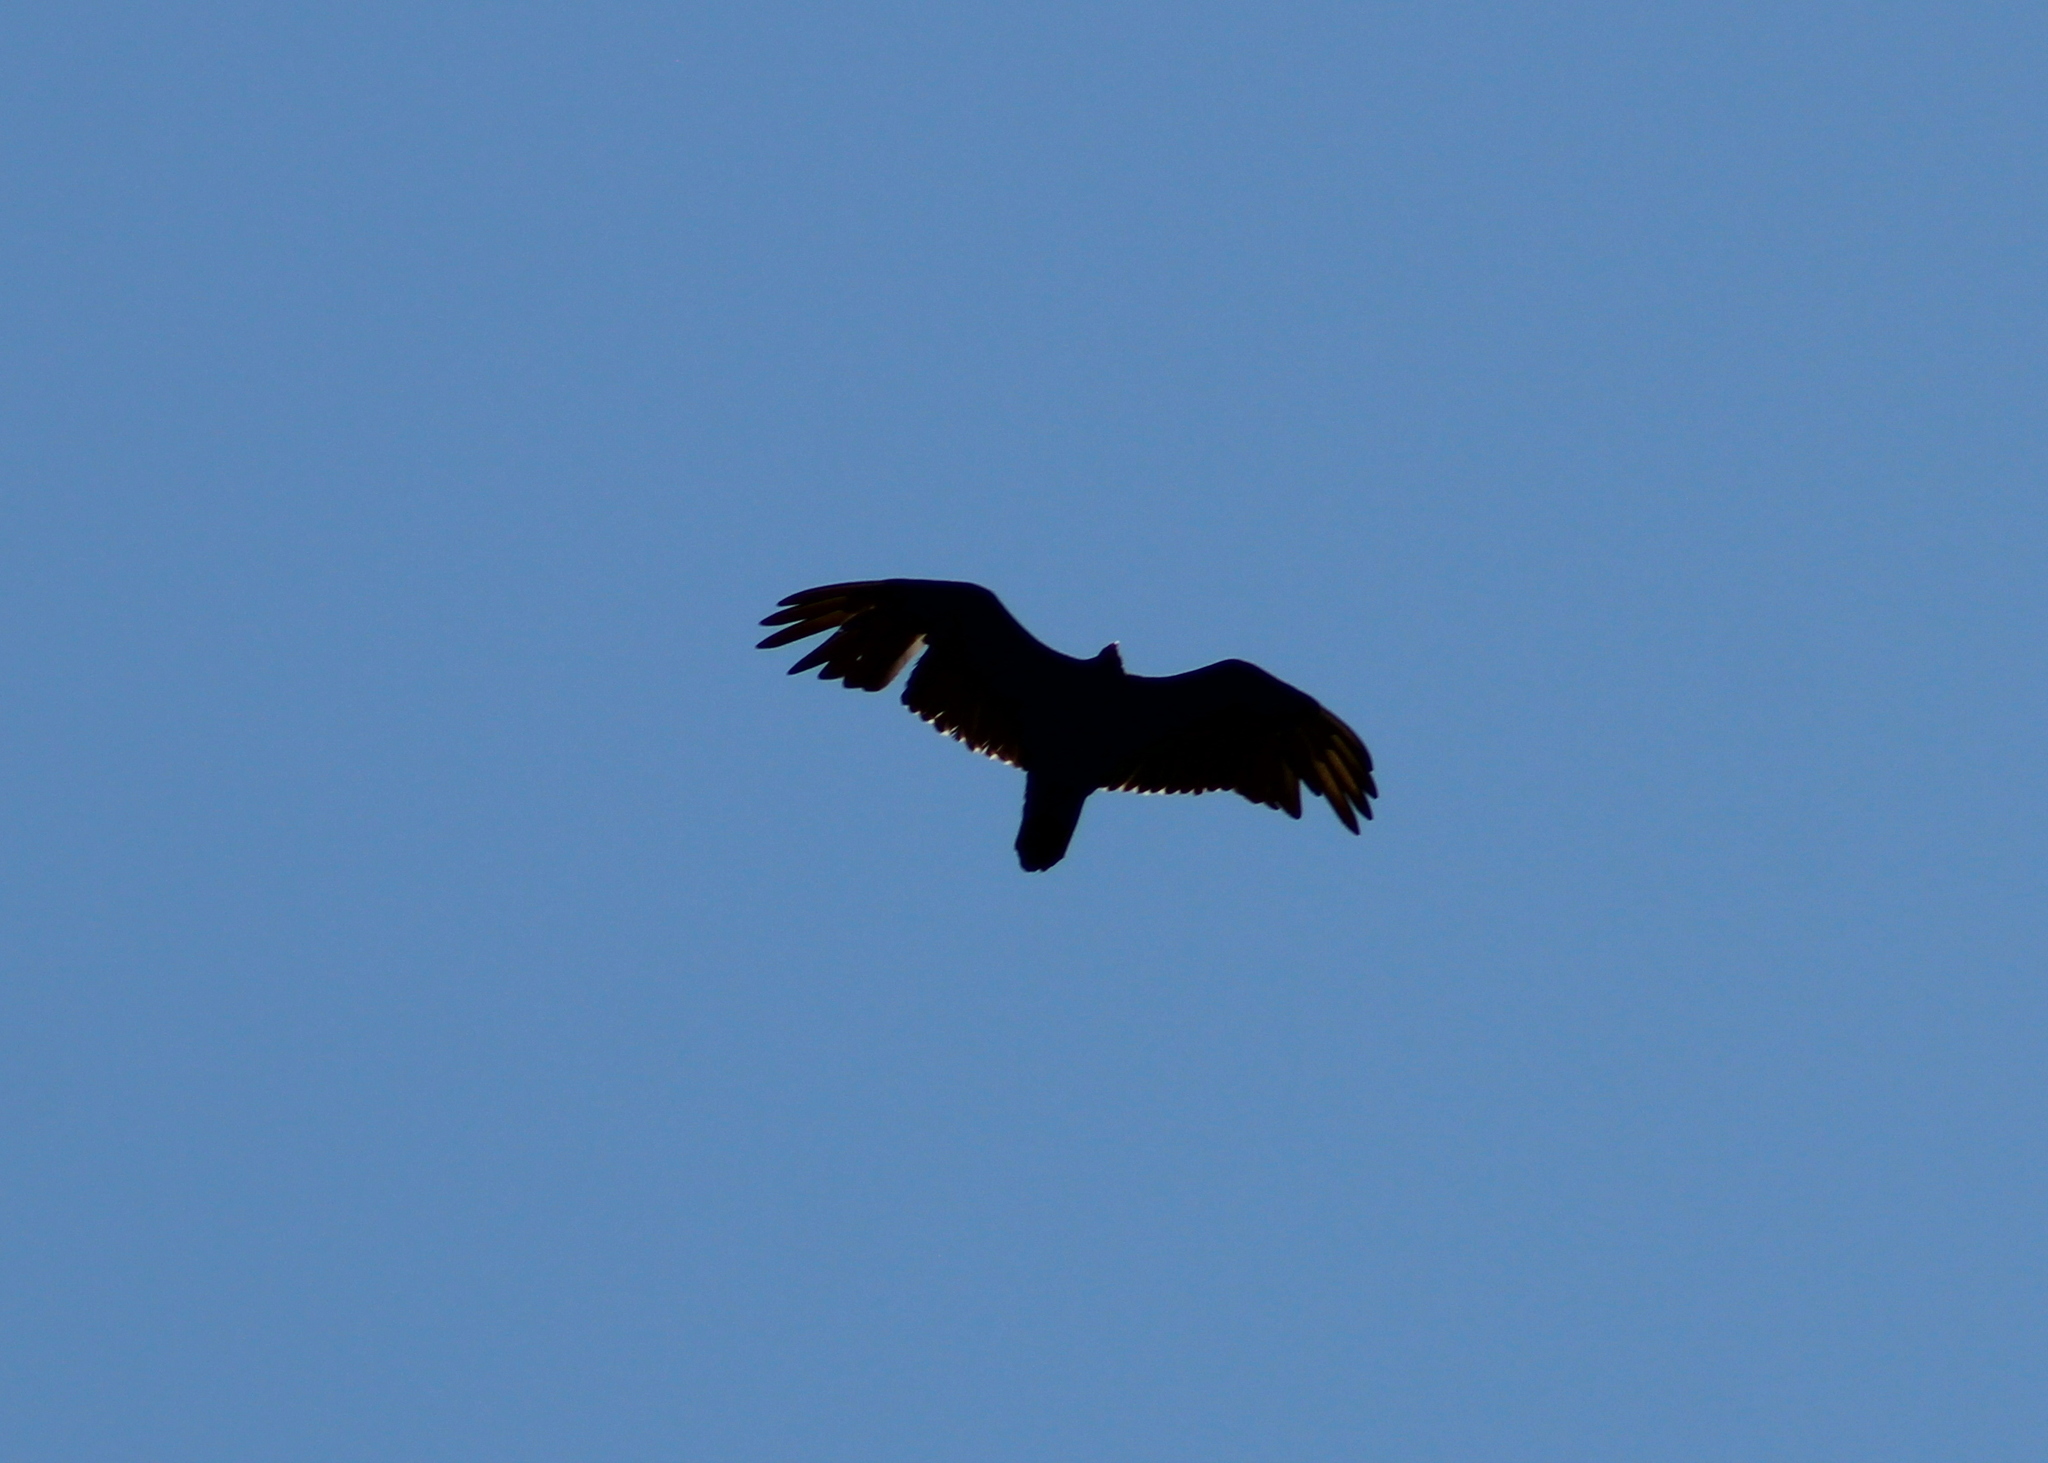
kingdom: Animalia
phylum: Chordata
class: Aves
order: Accipitriformes
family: Cathartidae
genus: Cathartes
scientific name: Cathartes aura
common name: Turkey vulture
